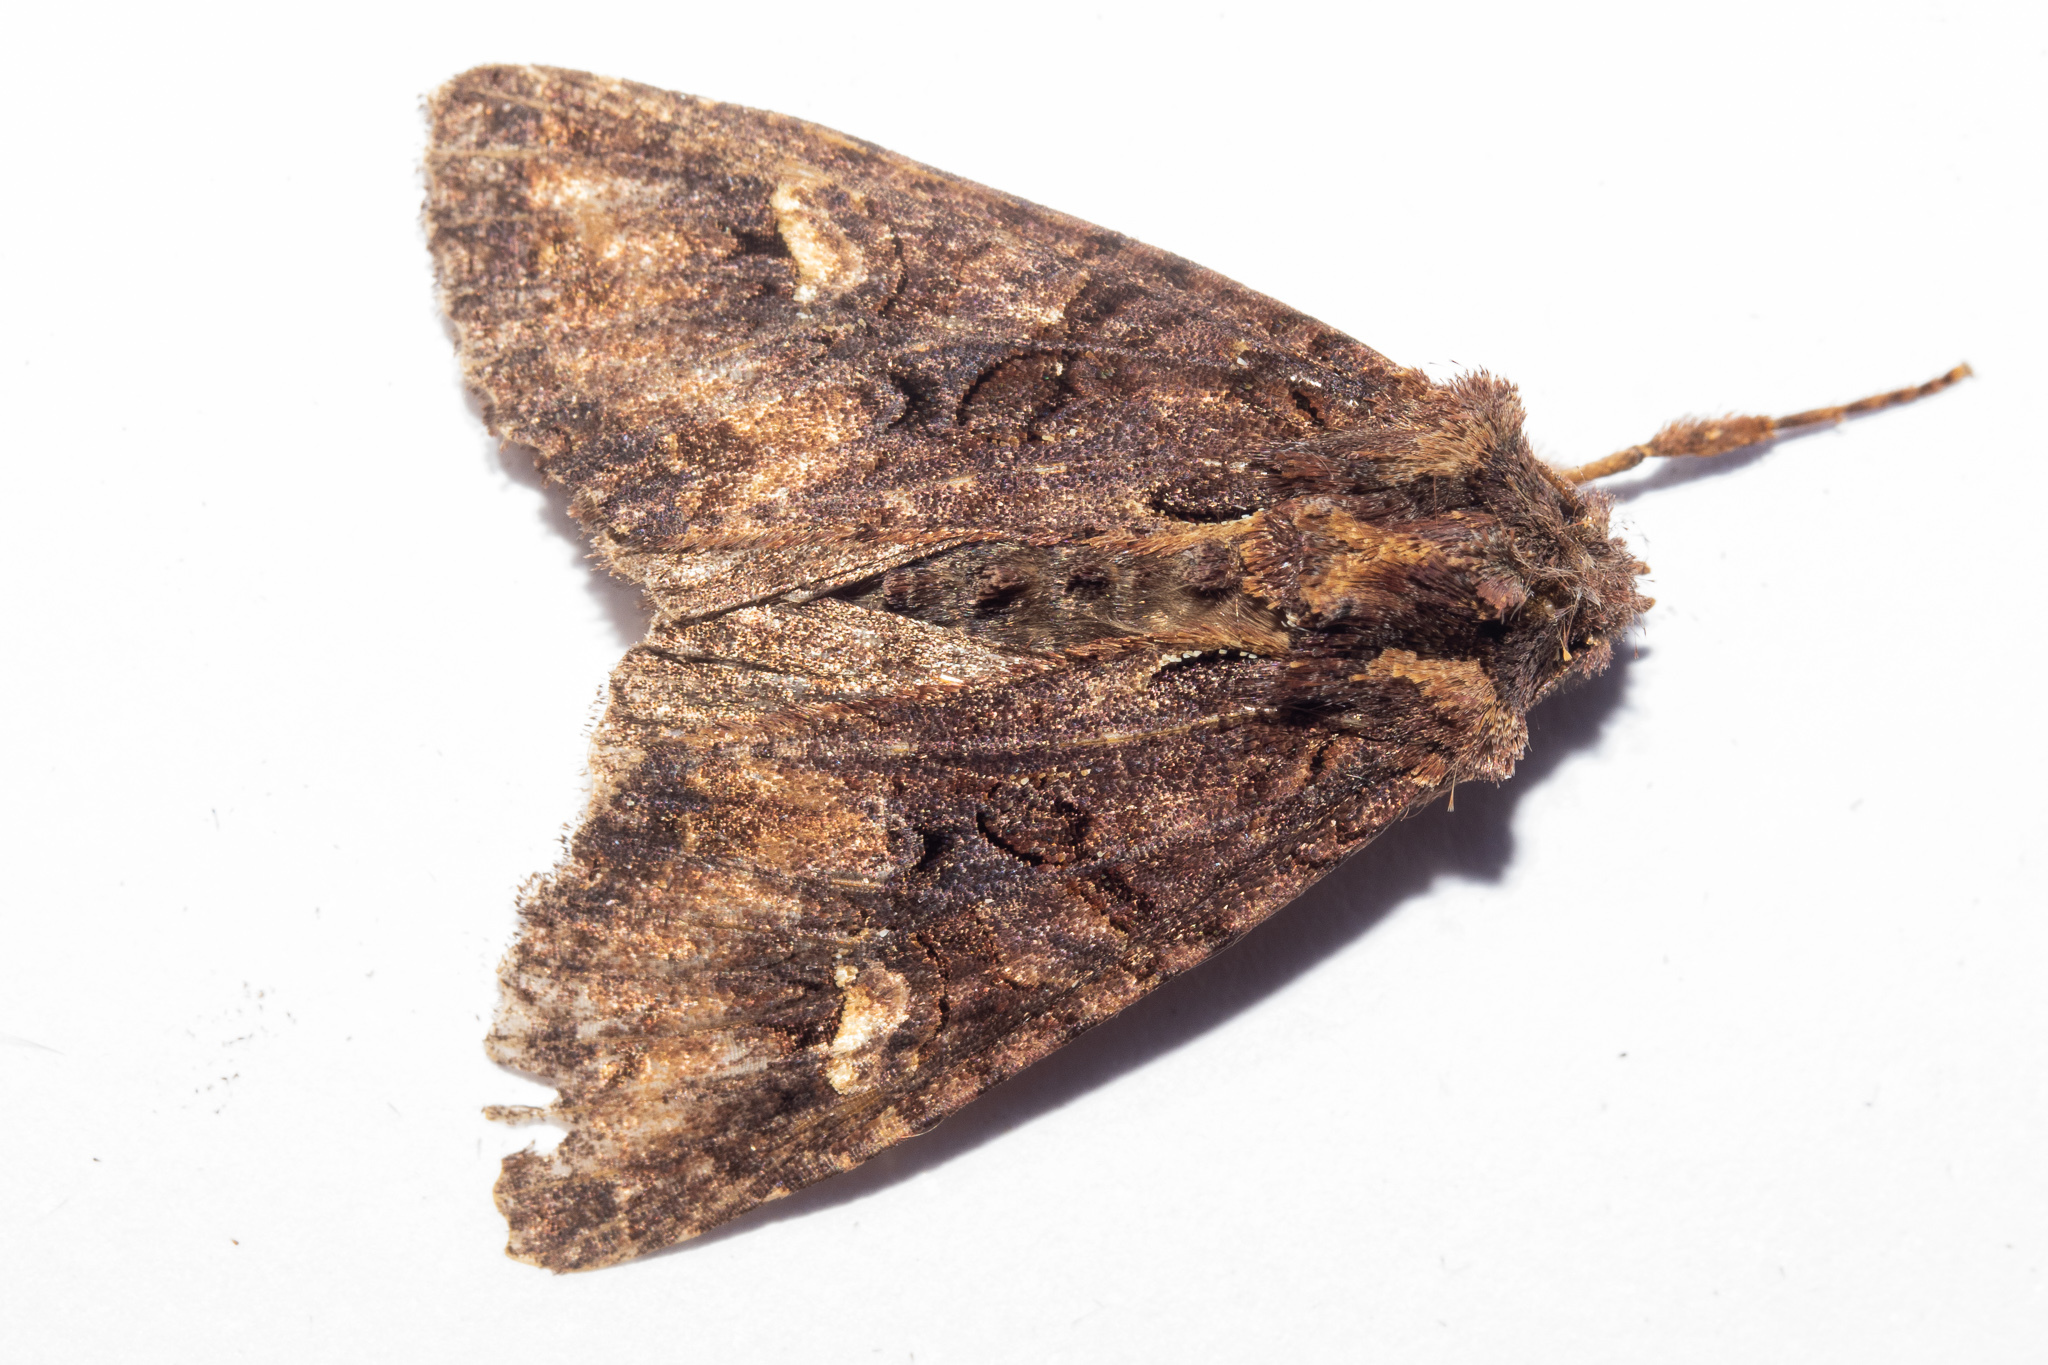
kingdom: Animalia
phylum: Arthropoda
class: Insecta
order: Lepidoptera
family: Noctuidae
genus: Meterana
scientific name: Meterana dotata
